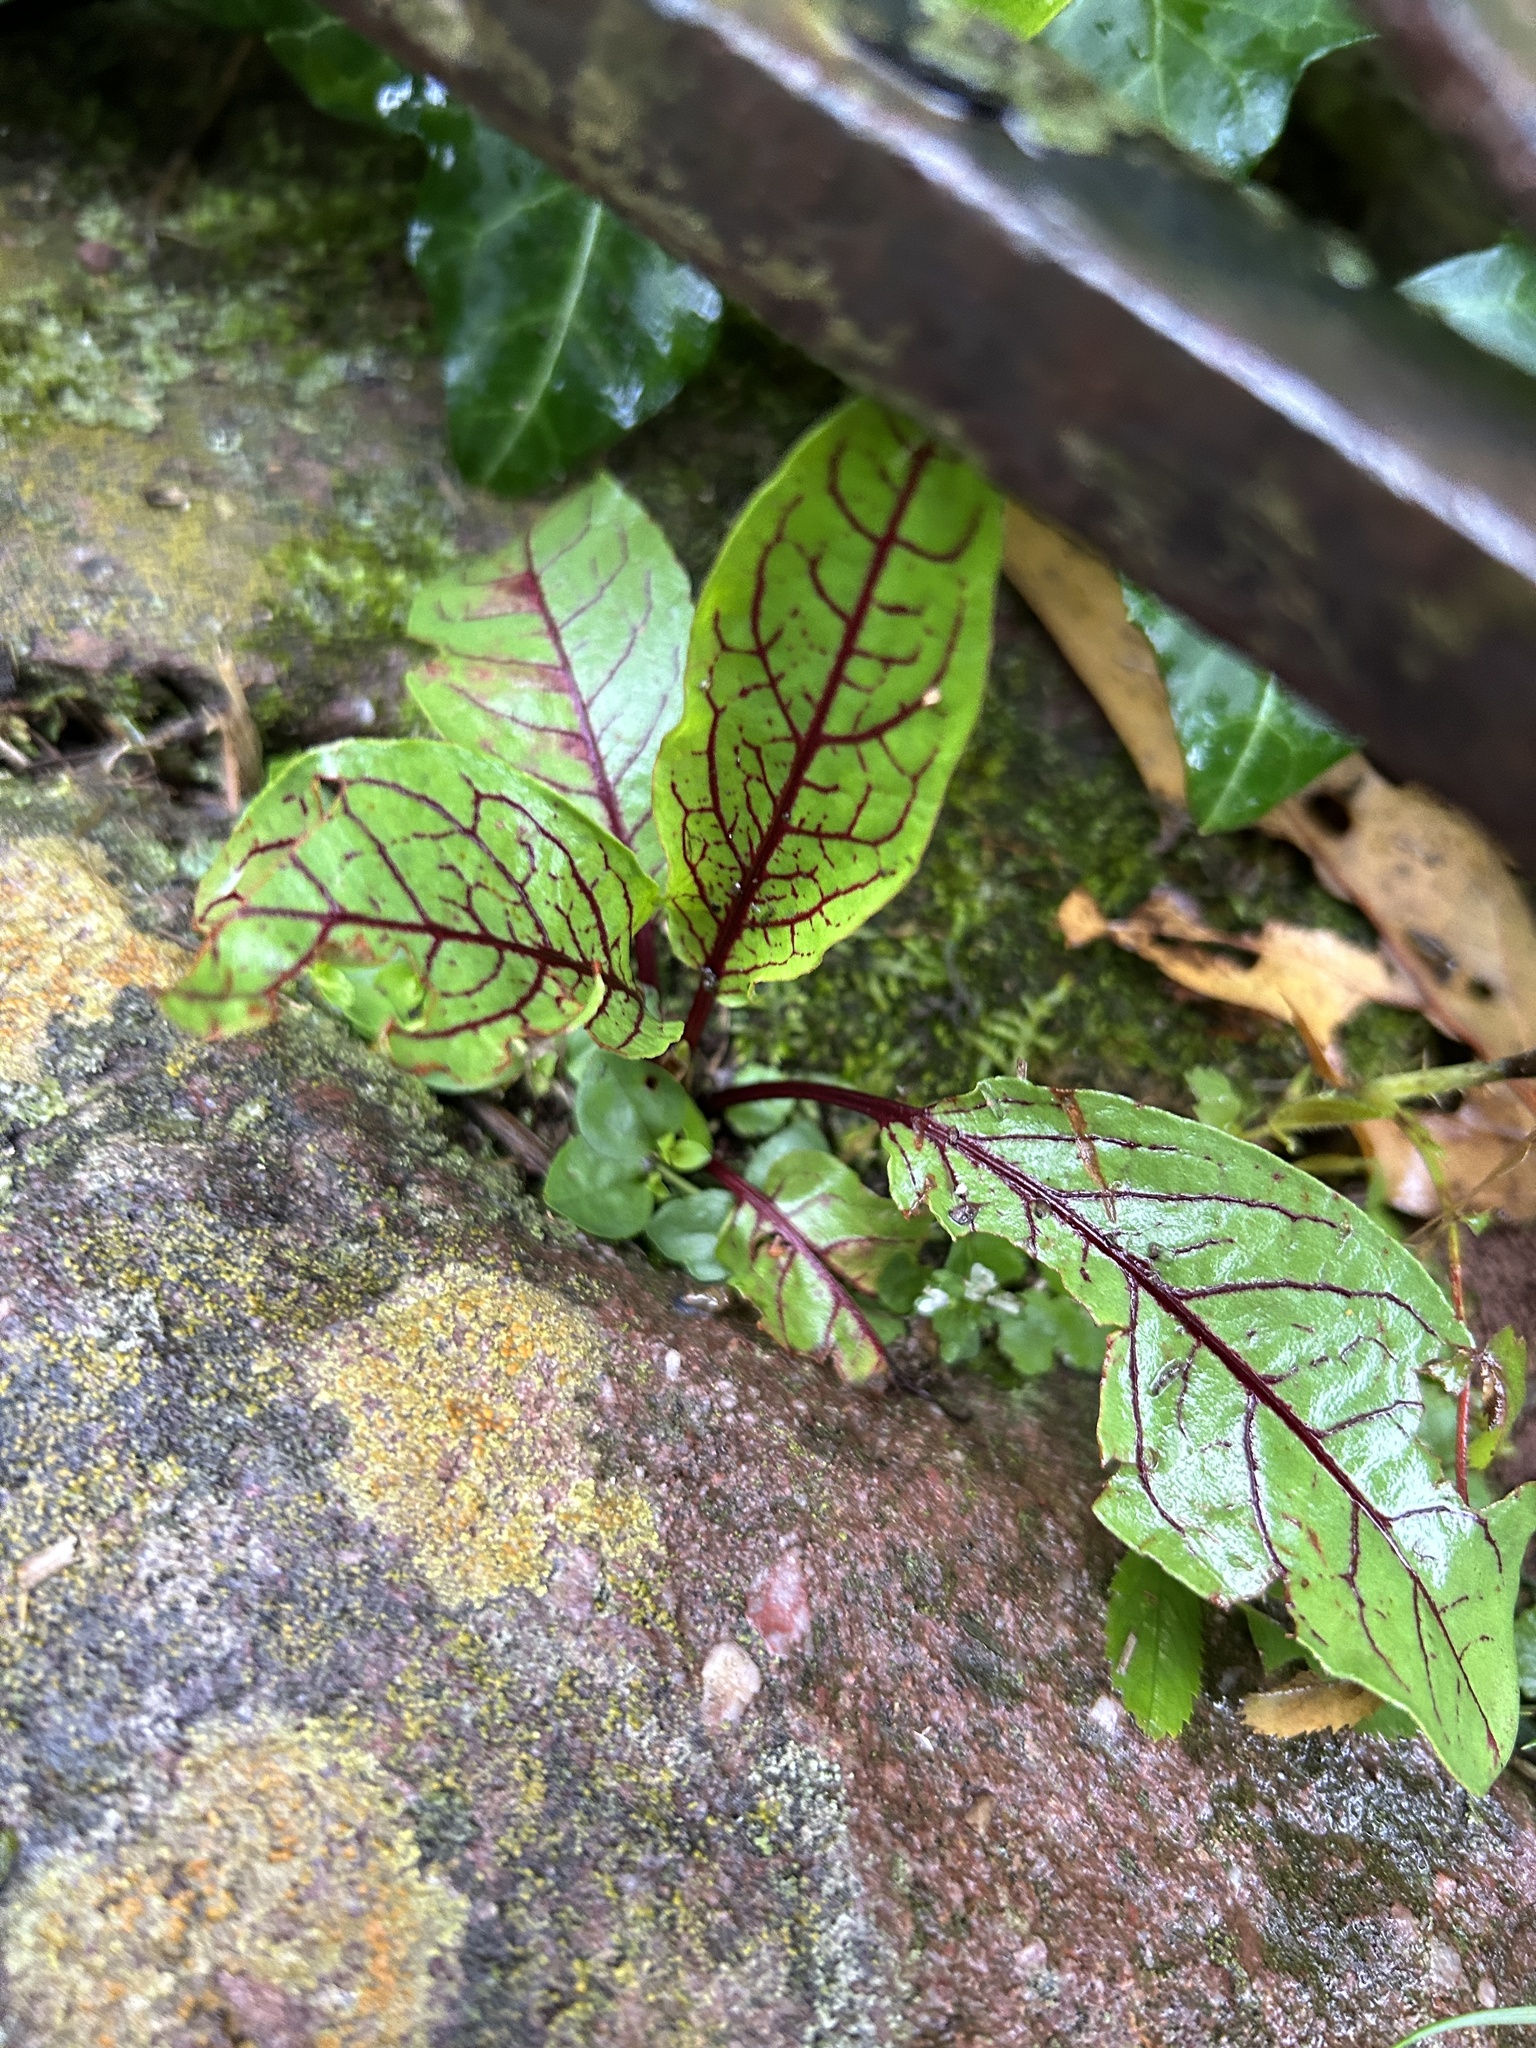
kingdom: Plantae
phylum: Tracheophyta
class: Magnoliopsida
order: Caryophyllales
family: Polygonaceae
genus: Rumex
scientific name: Rumex sanguineus
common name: Wood dock
